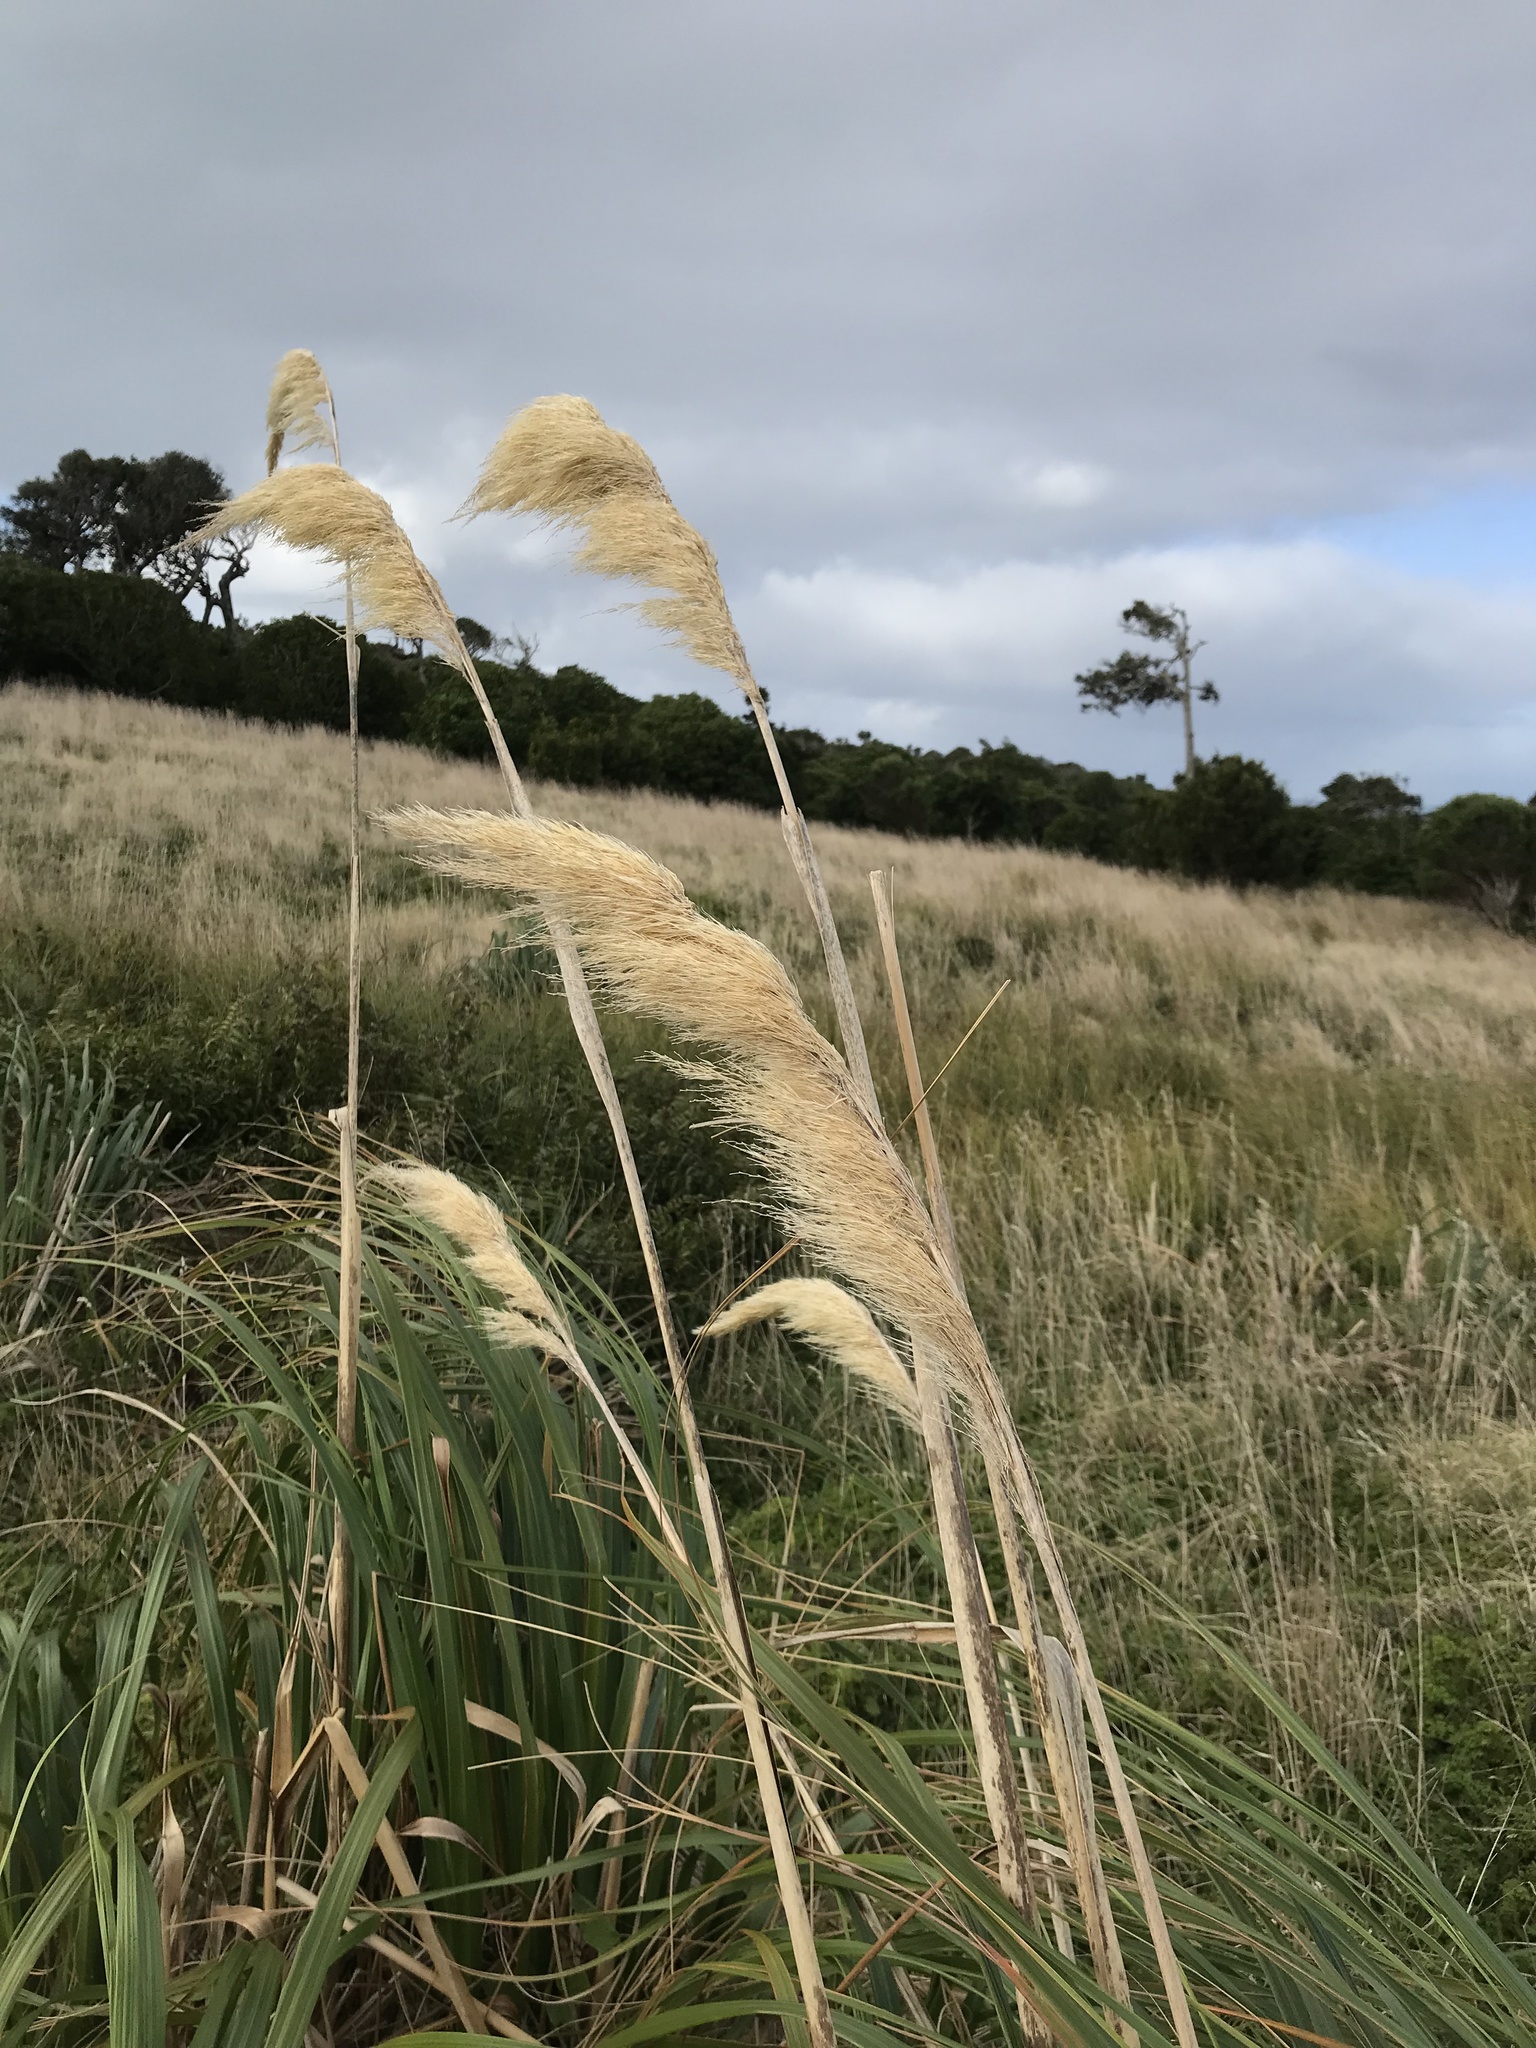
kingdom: Plantae
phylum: Tracheophyta
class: Liliopsida
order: Poales
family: Poaceae
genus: Austroderia
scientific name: Austroderia turbaria
